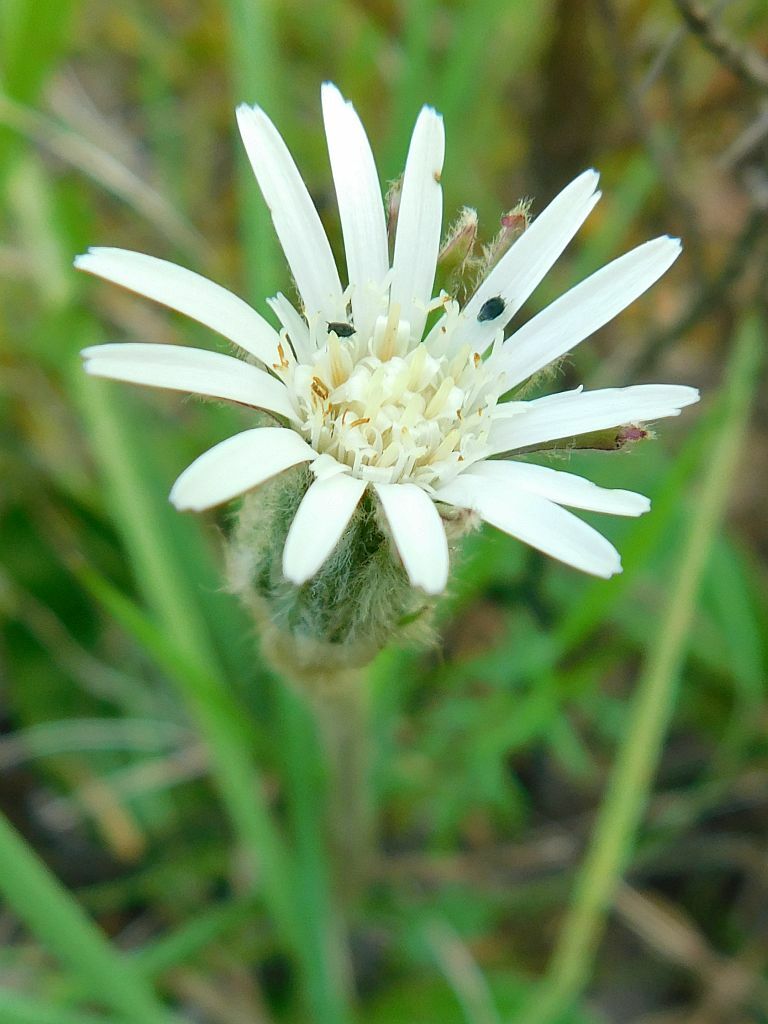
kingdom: Plantae
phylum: Tracheophyta
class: Magnoliopsida
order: Asterales
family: Asteraceae
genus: Piloselloides
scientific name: Piloselloides hirsuta
